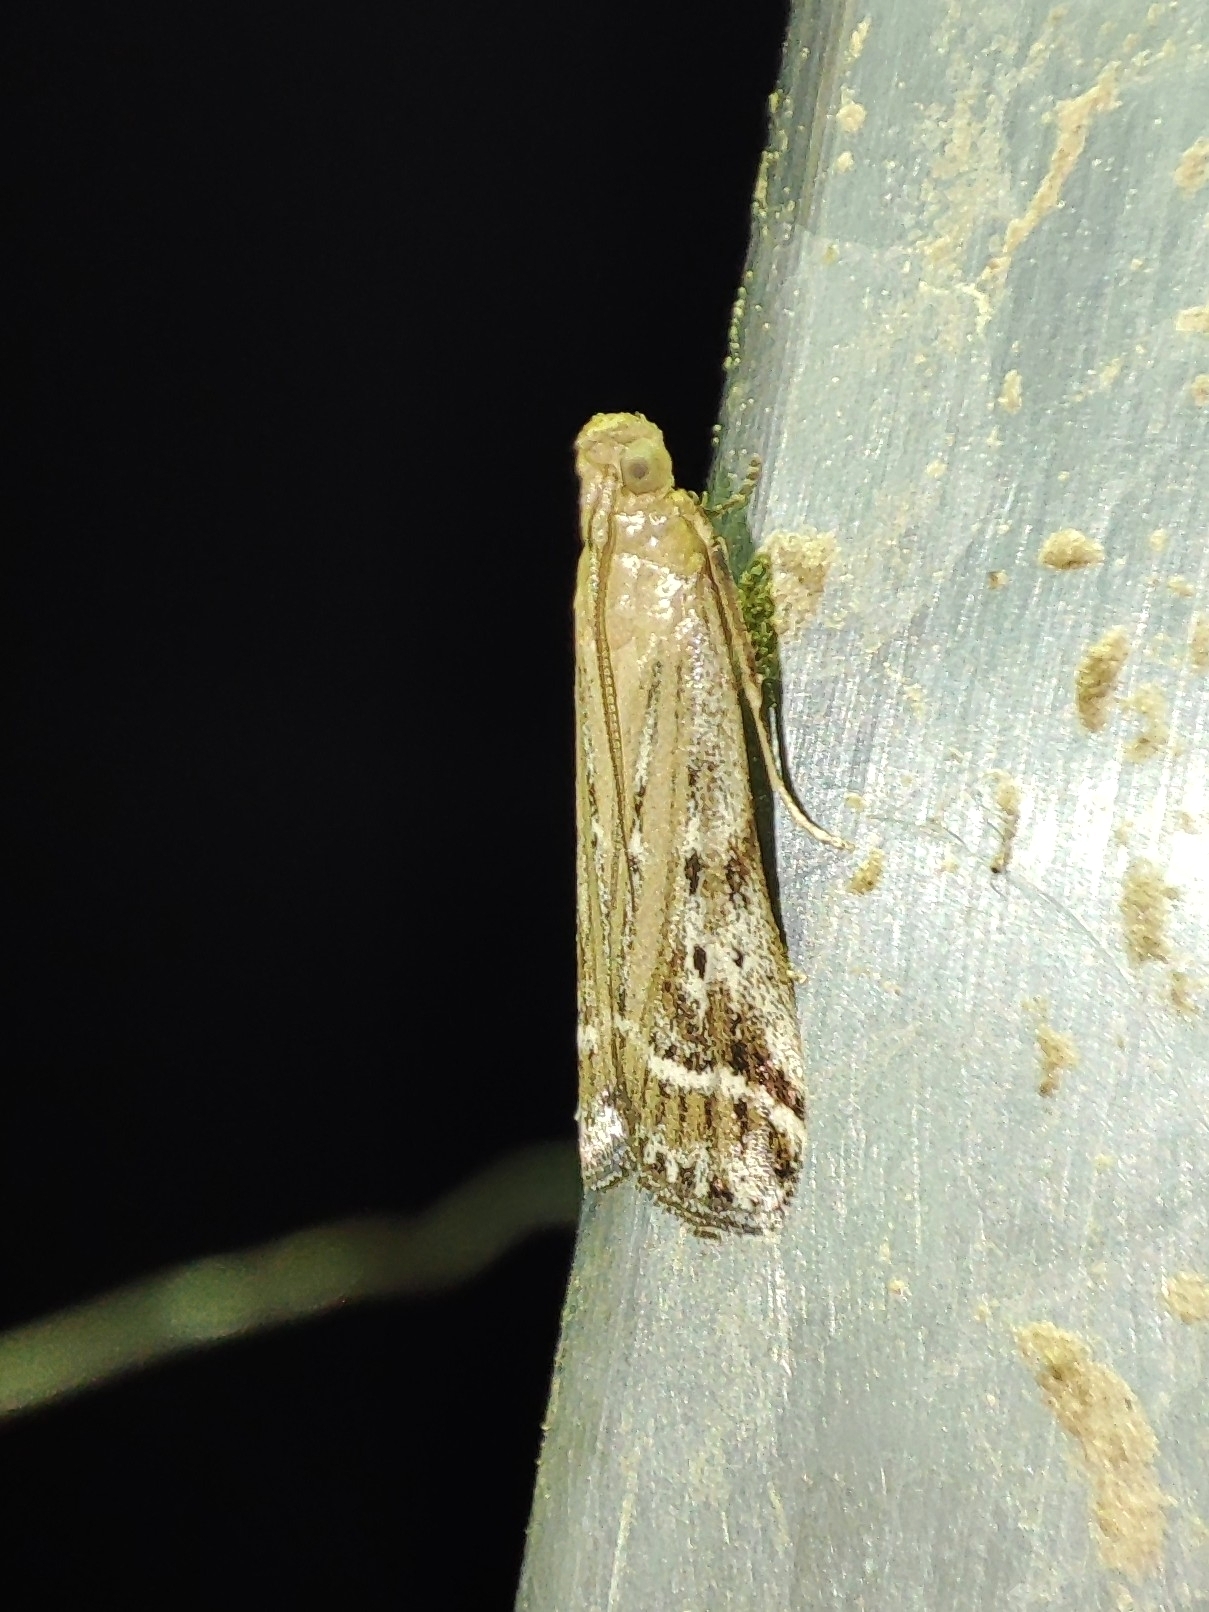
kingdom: Animalia
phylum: Arthropoda
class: Insecta
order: Lepidoptera
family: Pyralidae
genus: Pempelia
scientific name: Pempelia ornatella
